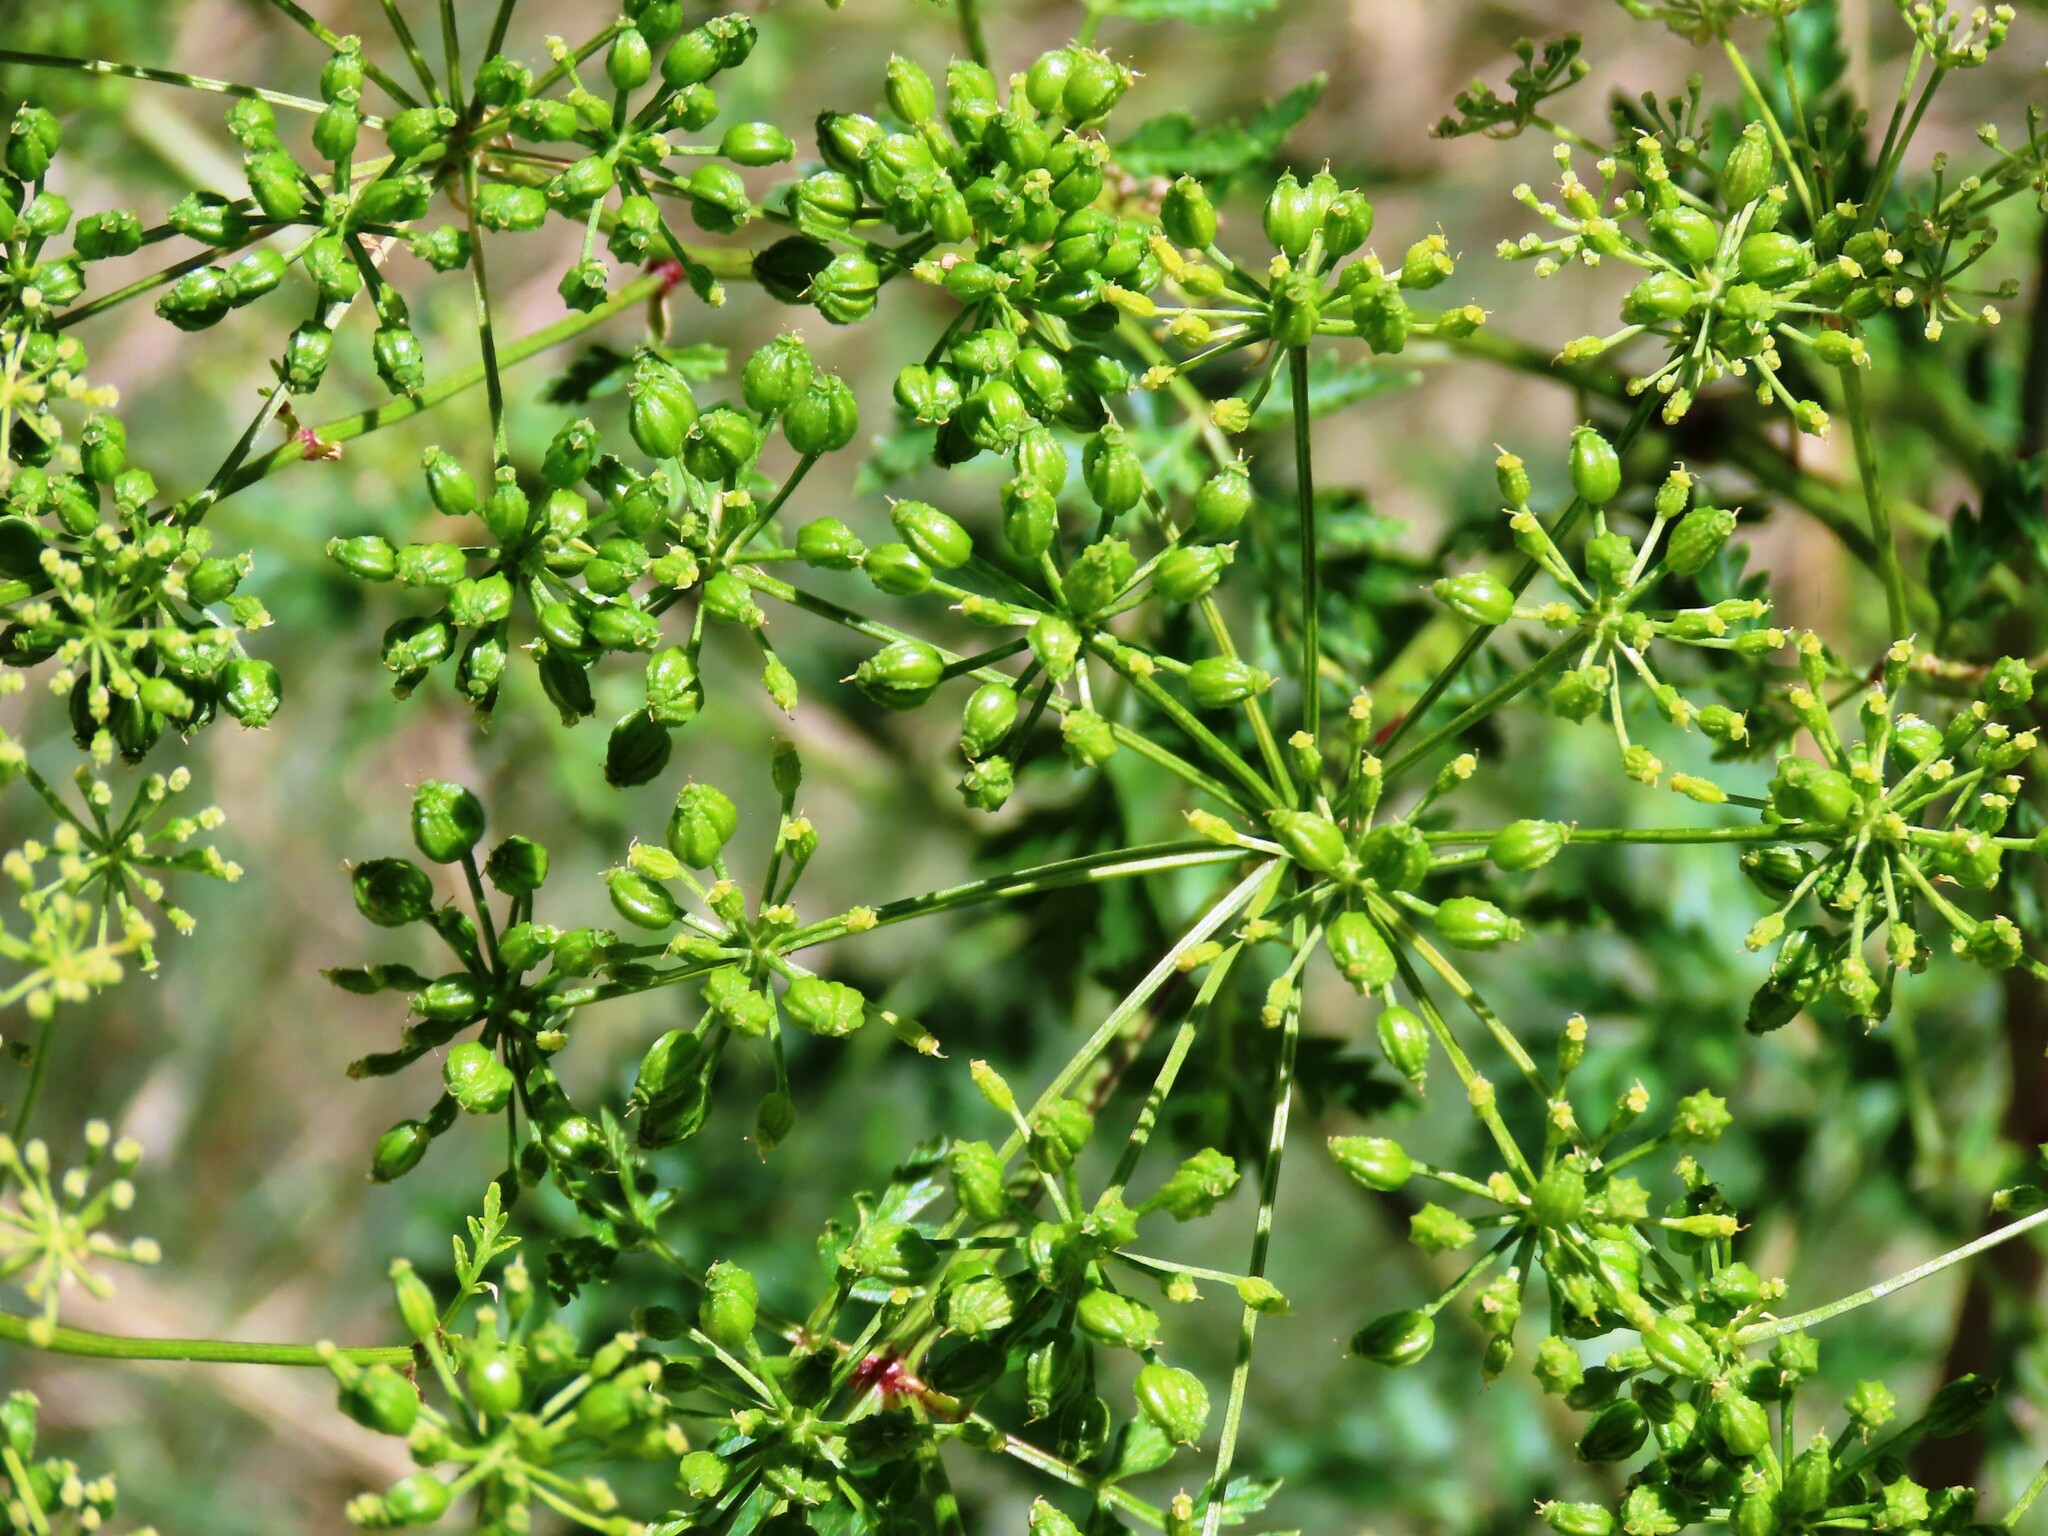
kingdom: Plantae
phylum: Tracheophyta
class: Magnoliopsida
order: Apiales
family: Apiaceae
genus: Conium
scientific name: Conium maculatum
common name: Hemlock
